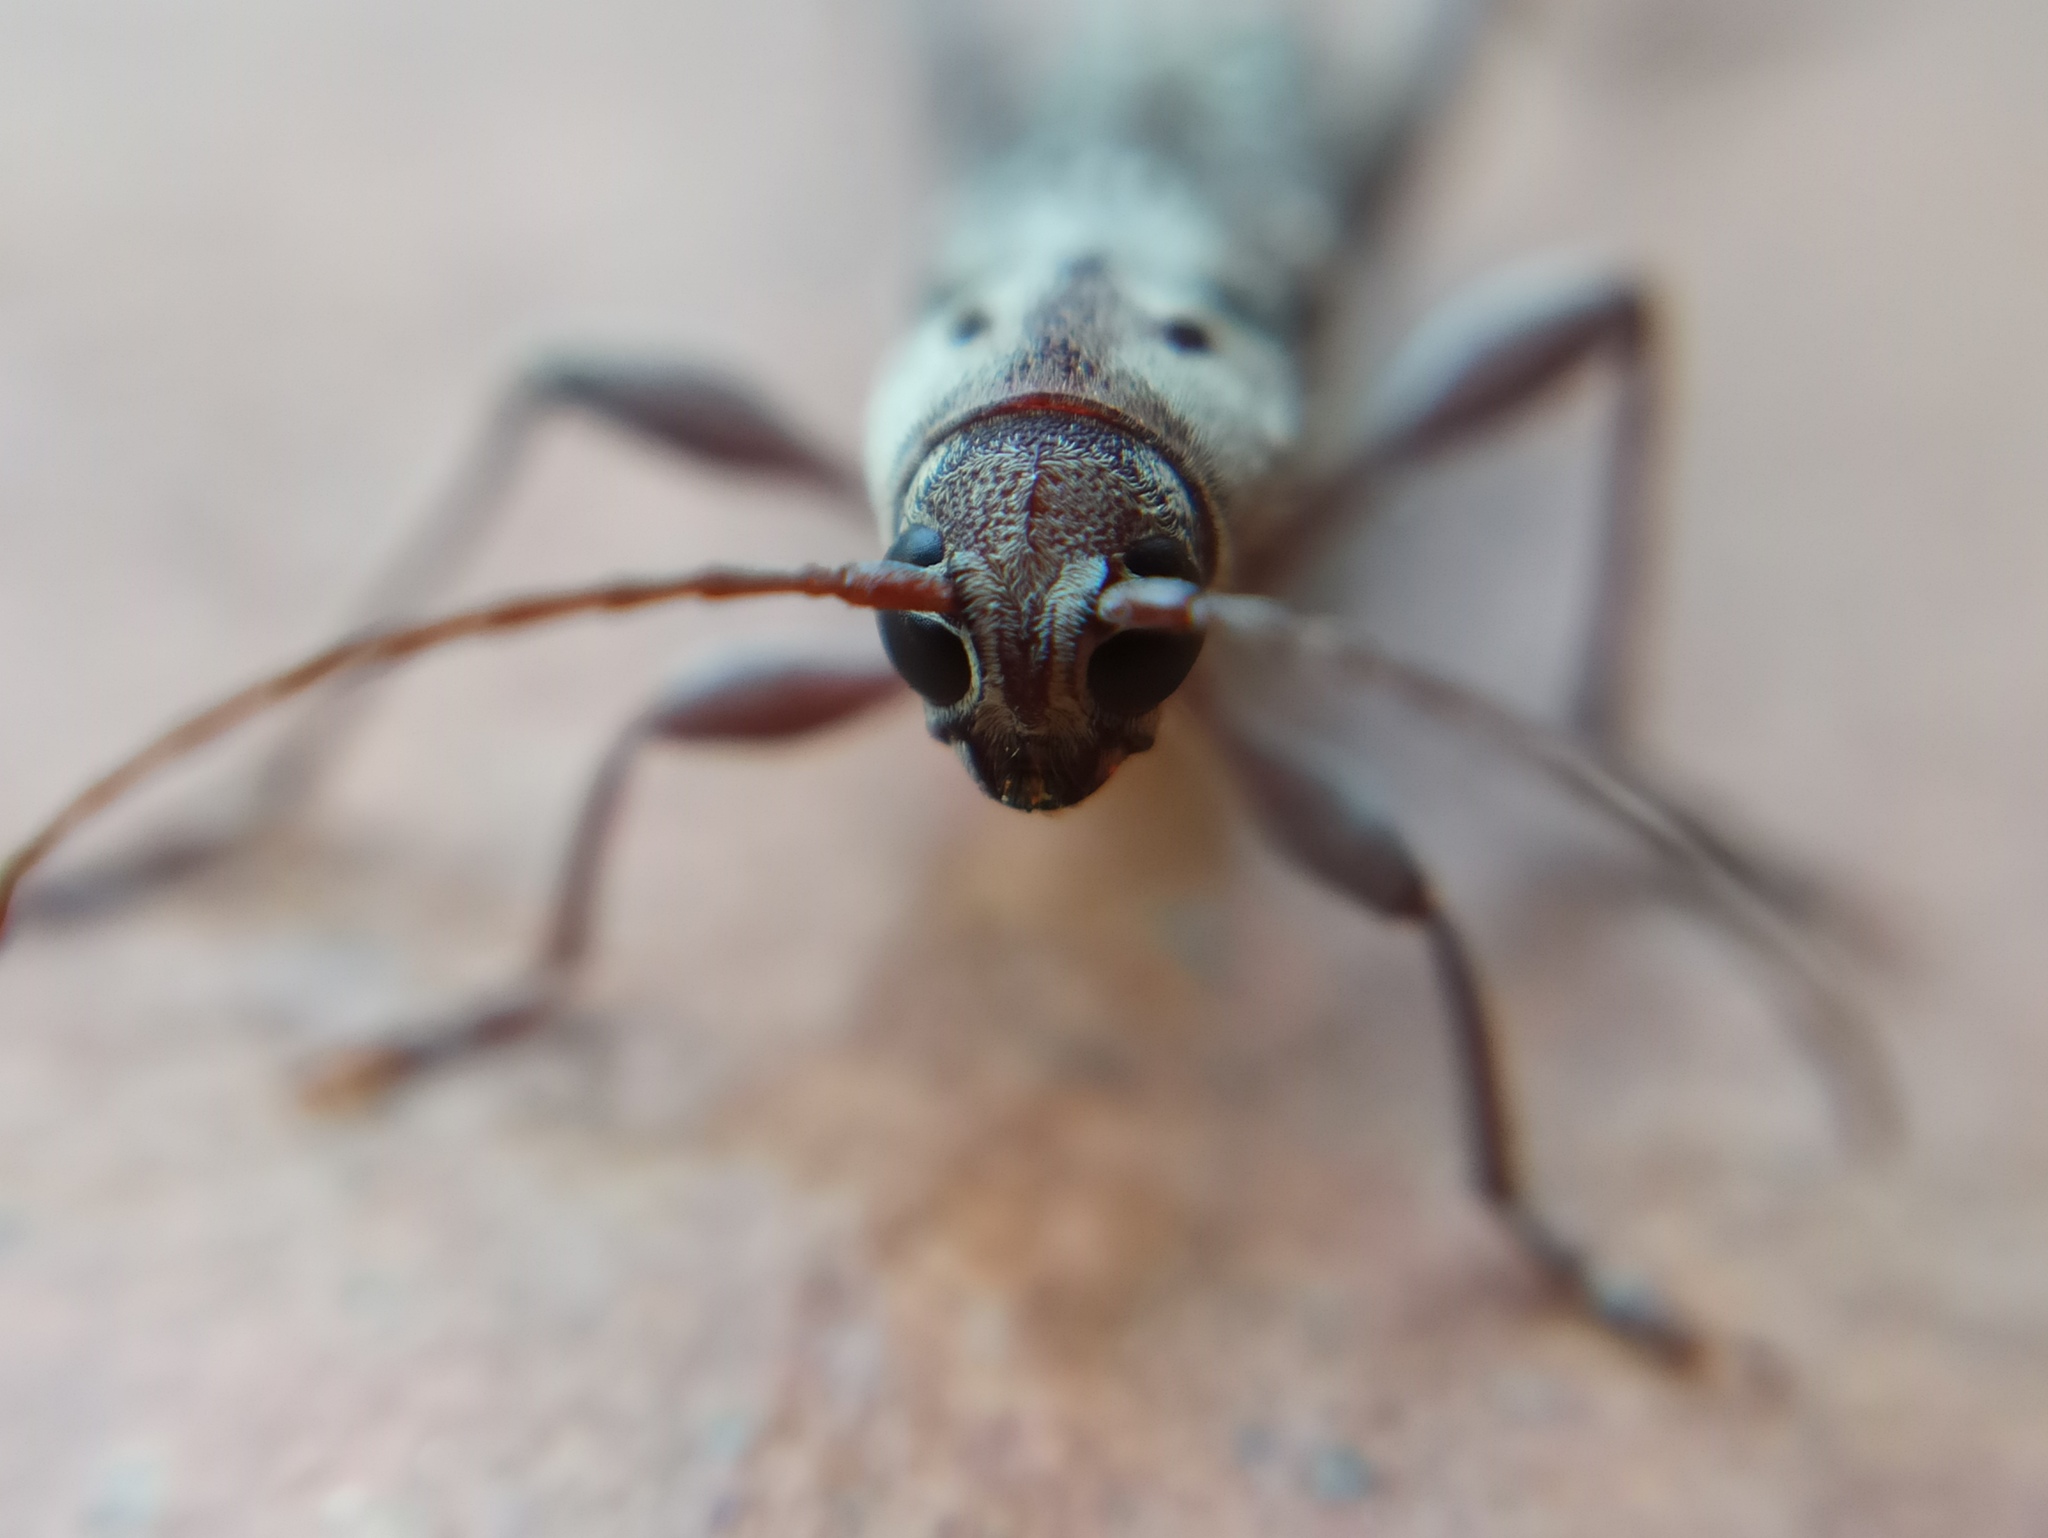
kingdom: Animalia
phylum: Arthropoda
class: Insecta
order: Coleoptera
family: Cerambycidae
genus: Xylotrechus
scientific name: Xylotrechus smei
